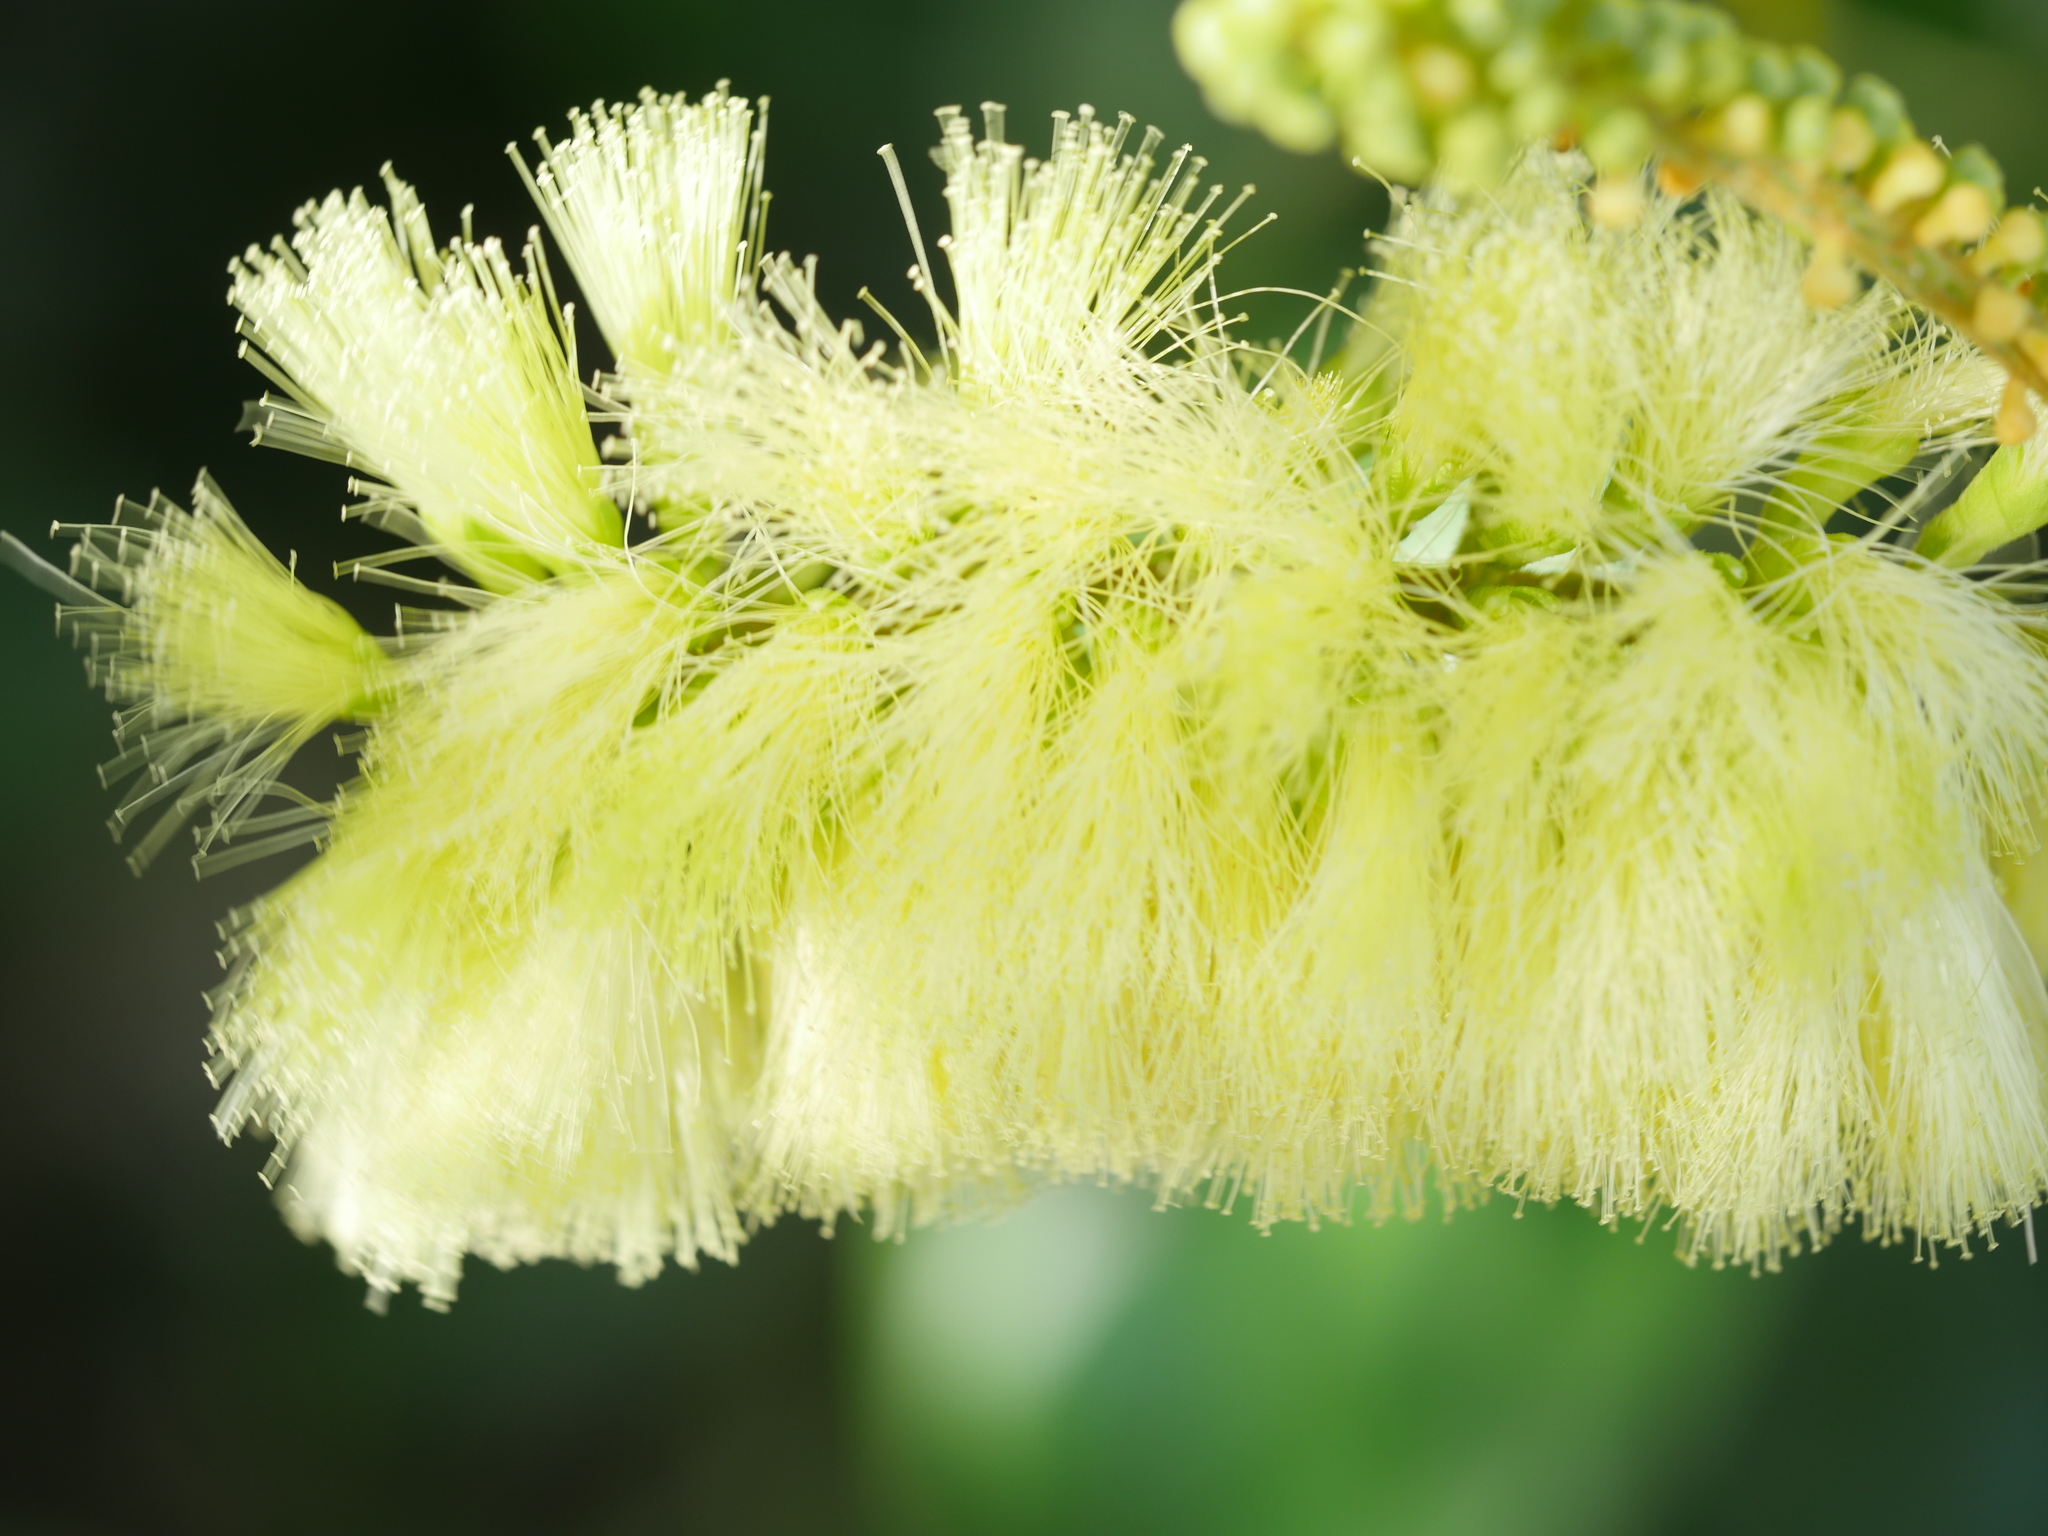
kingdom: Plantae
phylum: Tracheophyta
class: Magnoliopsida
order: Fabales
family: Fabaceae
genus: Paraserianthes
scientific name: Paraserianthes lophantha
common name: Plume albizia
